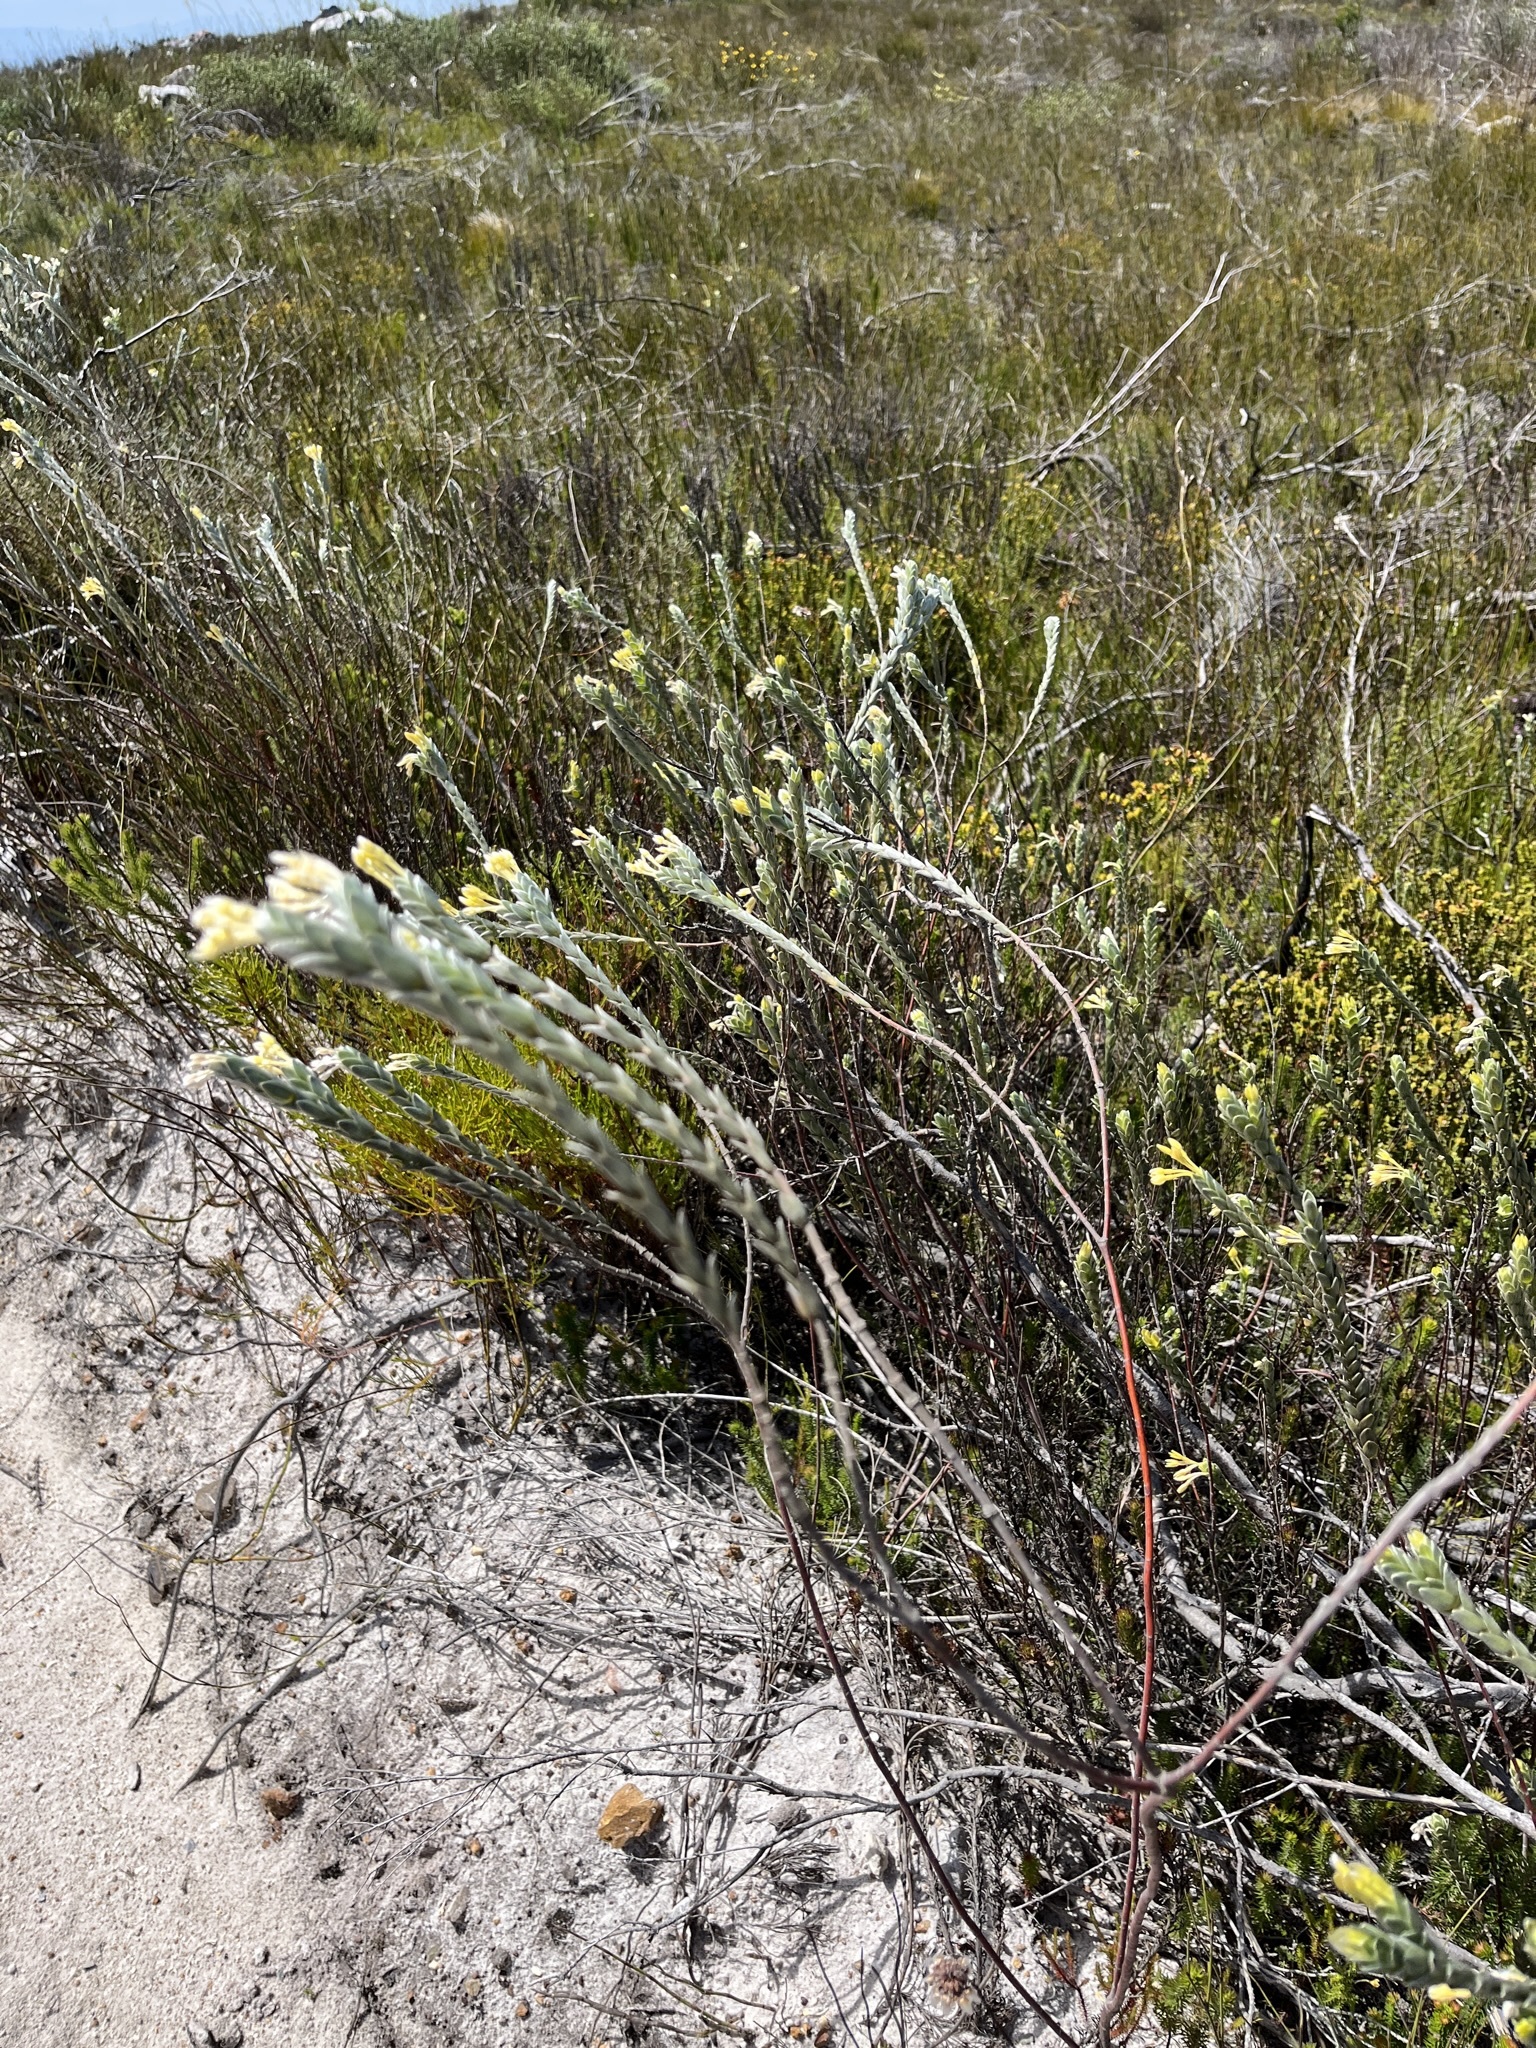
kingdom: Plantae
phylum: Tracheophyta
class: Magnoliopsida
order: Malvales
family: Thymelaeaceae
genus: Gnidia
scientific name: Gnidia anomala
